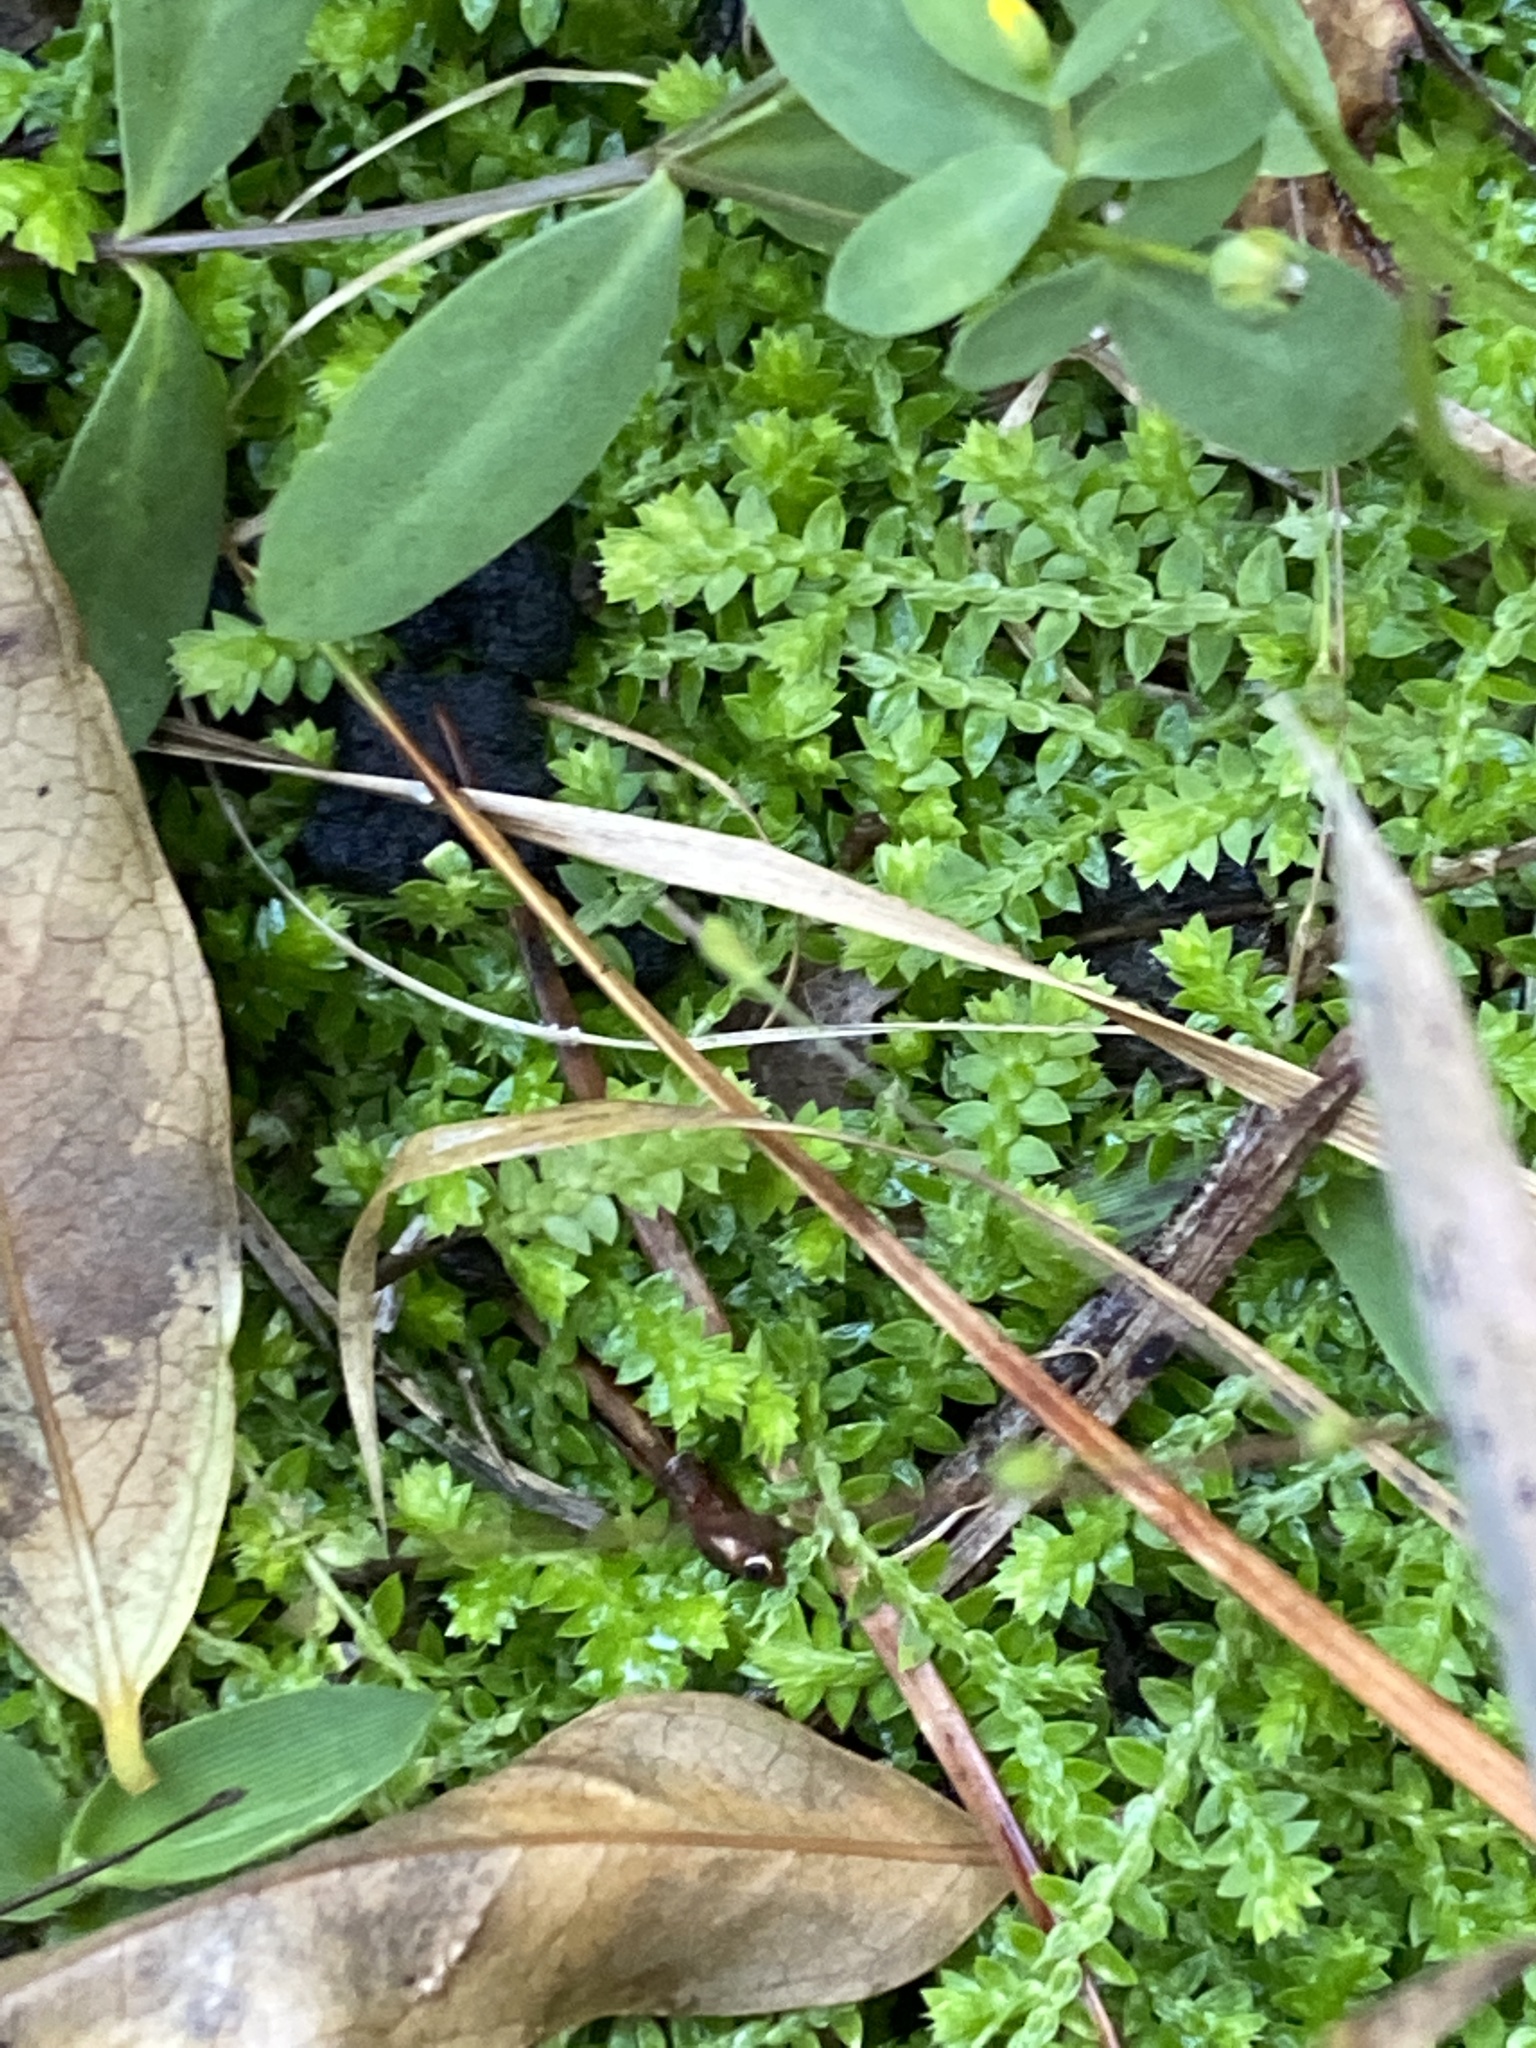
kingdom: Plantae
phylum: Tracheophyta
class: Lycopodiopsida
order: Selaginellales
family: Selaginellaceae
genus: Selaginella
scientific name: Selaginella apoda
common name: Creeping spikemoss
